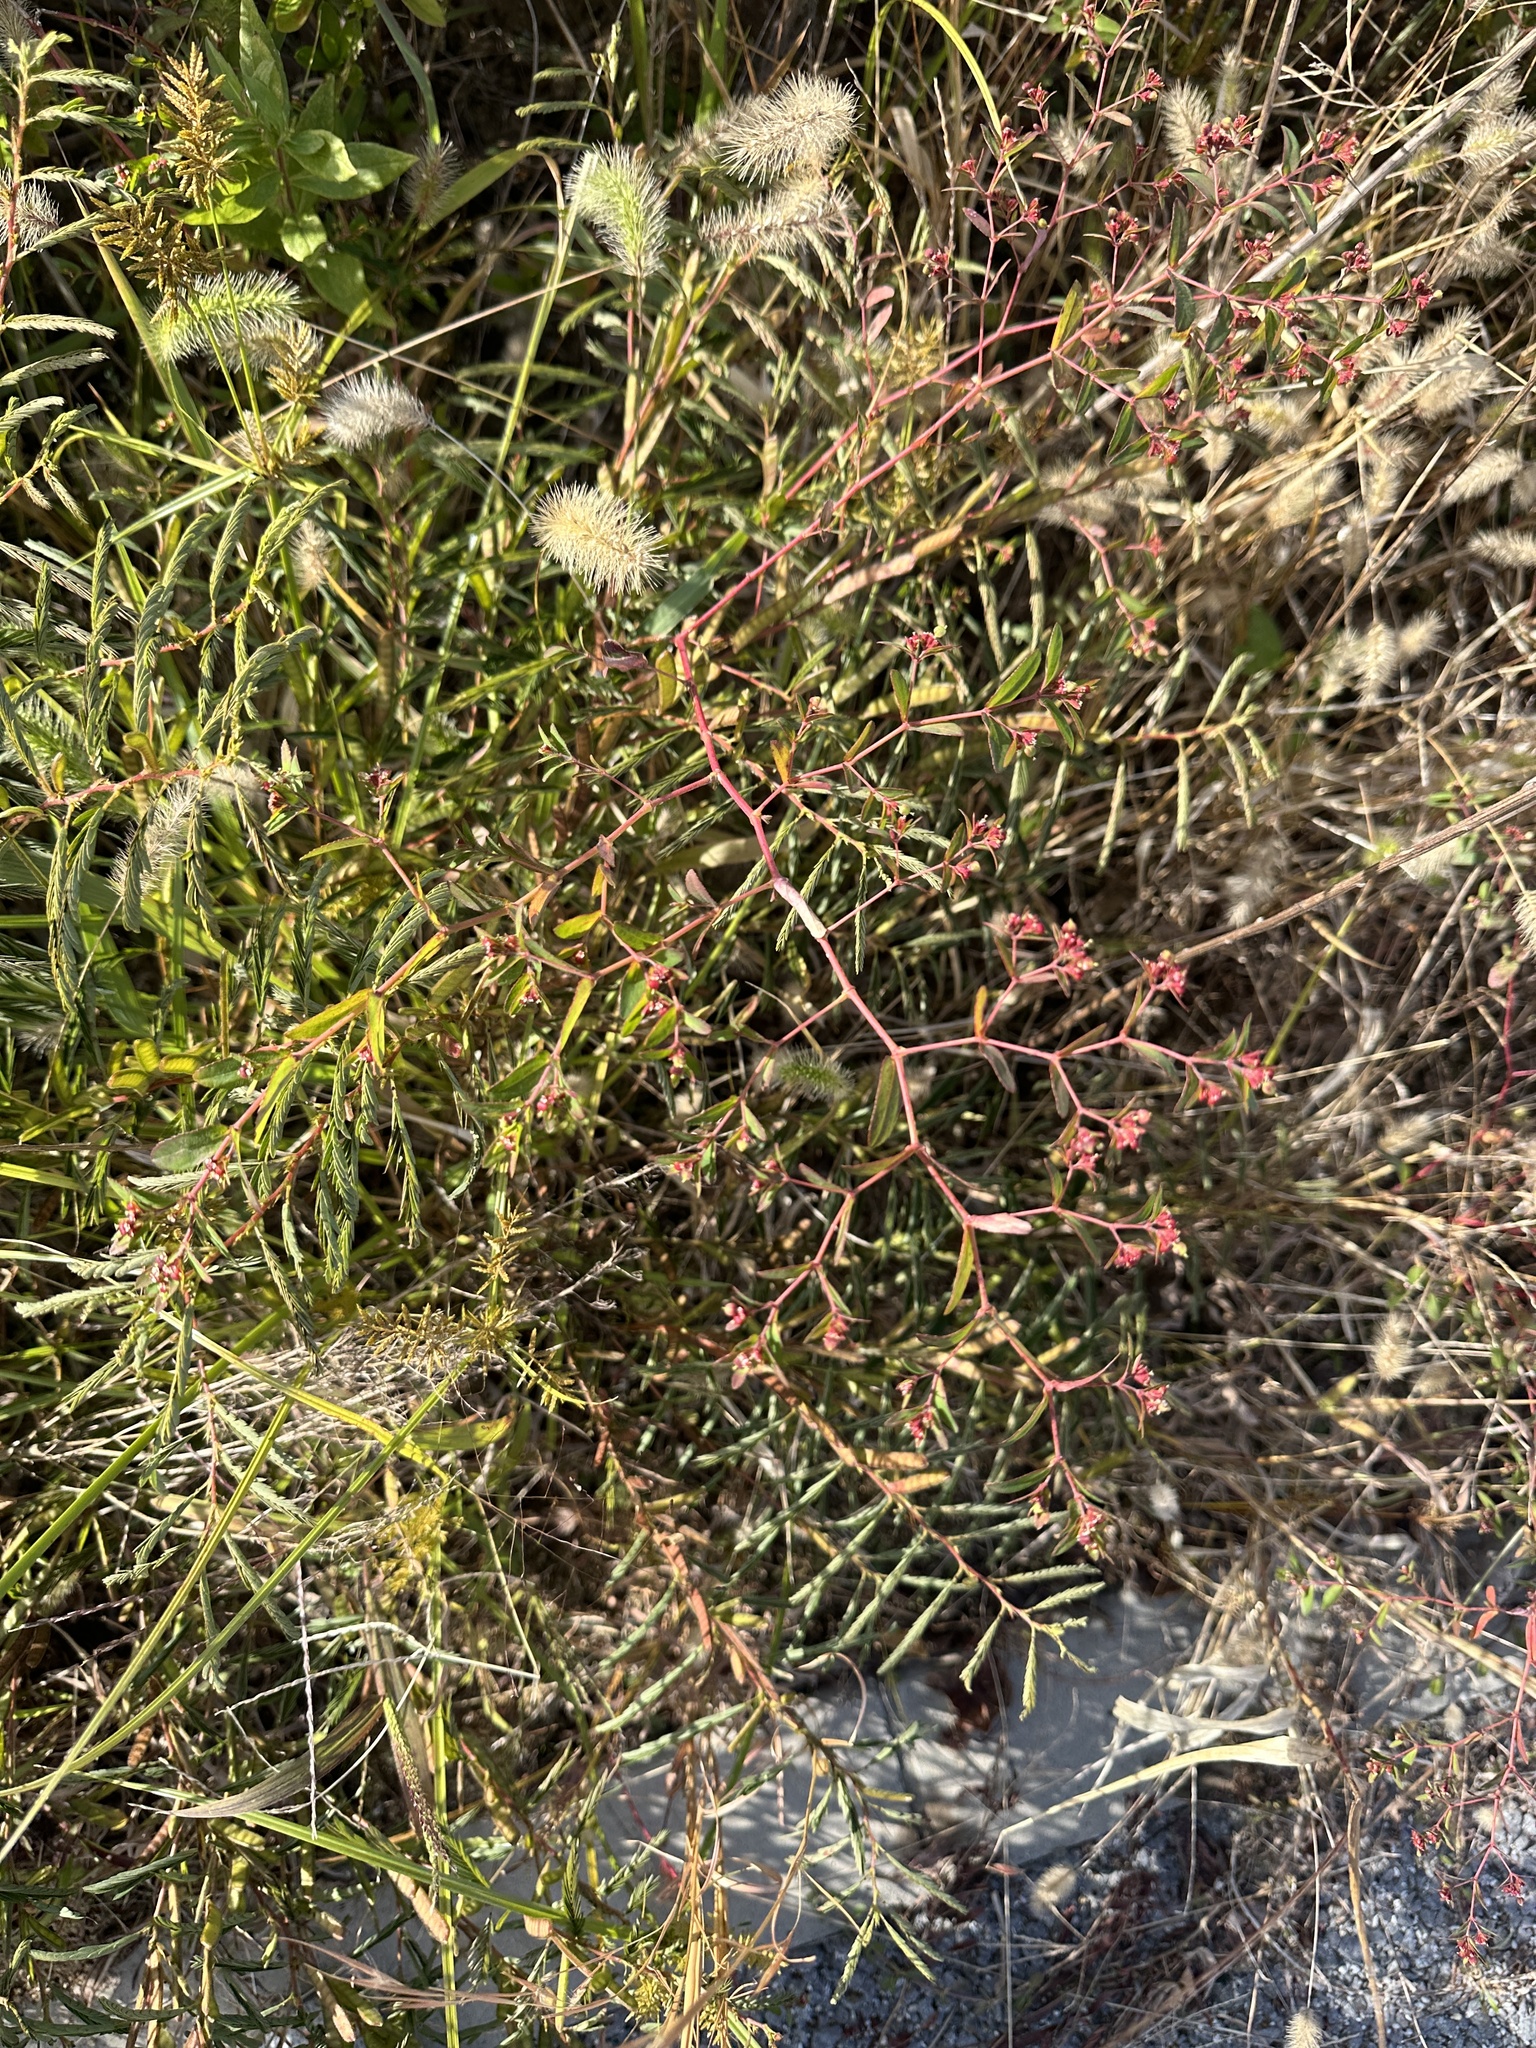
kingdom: Plantae
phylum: Tracheophyta
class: Magnoliopsida
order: Malpighiales
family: Euphorbiaceae
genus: Euphorbia
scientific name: Euphorbia nutans
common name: Eyebane
